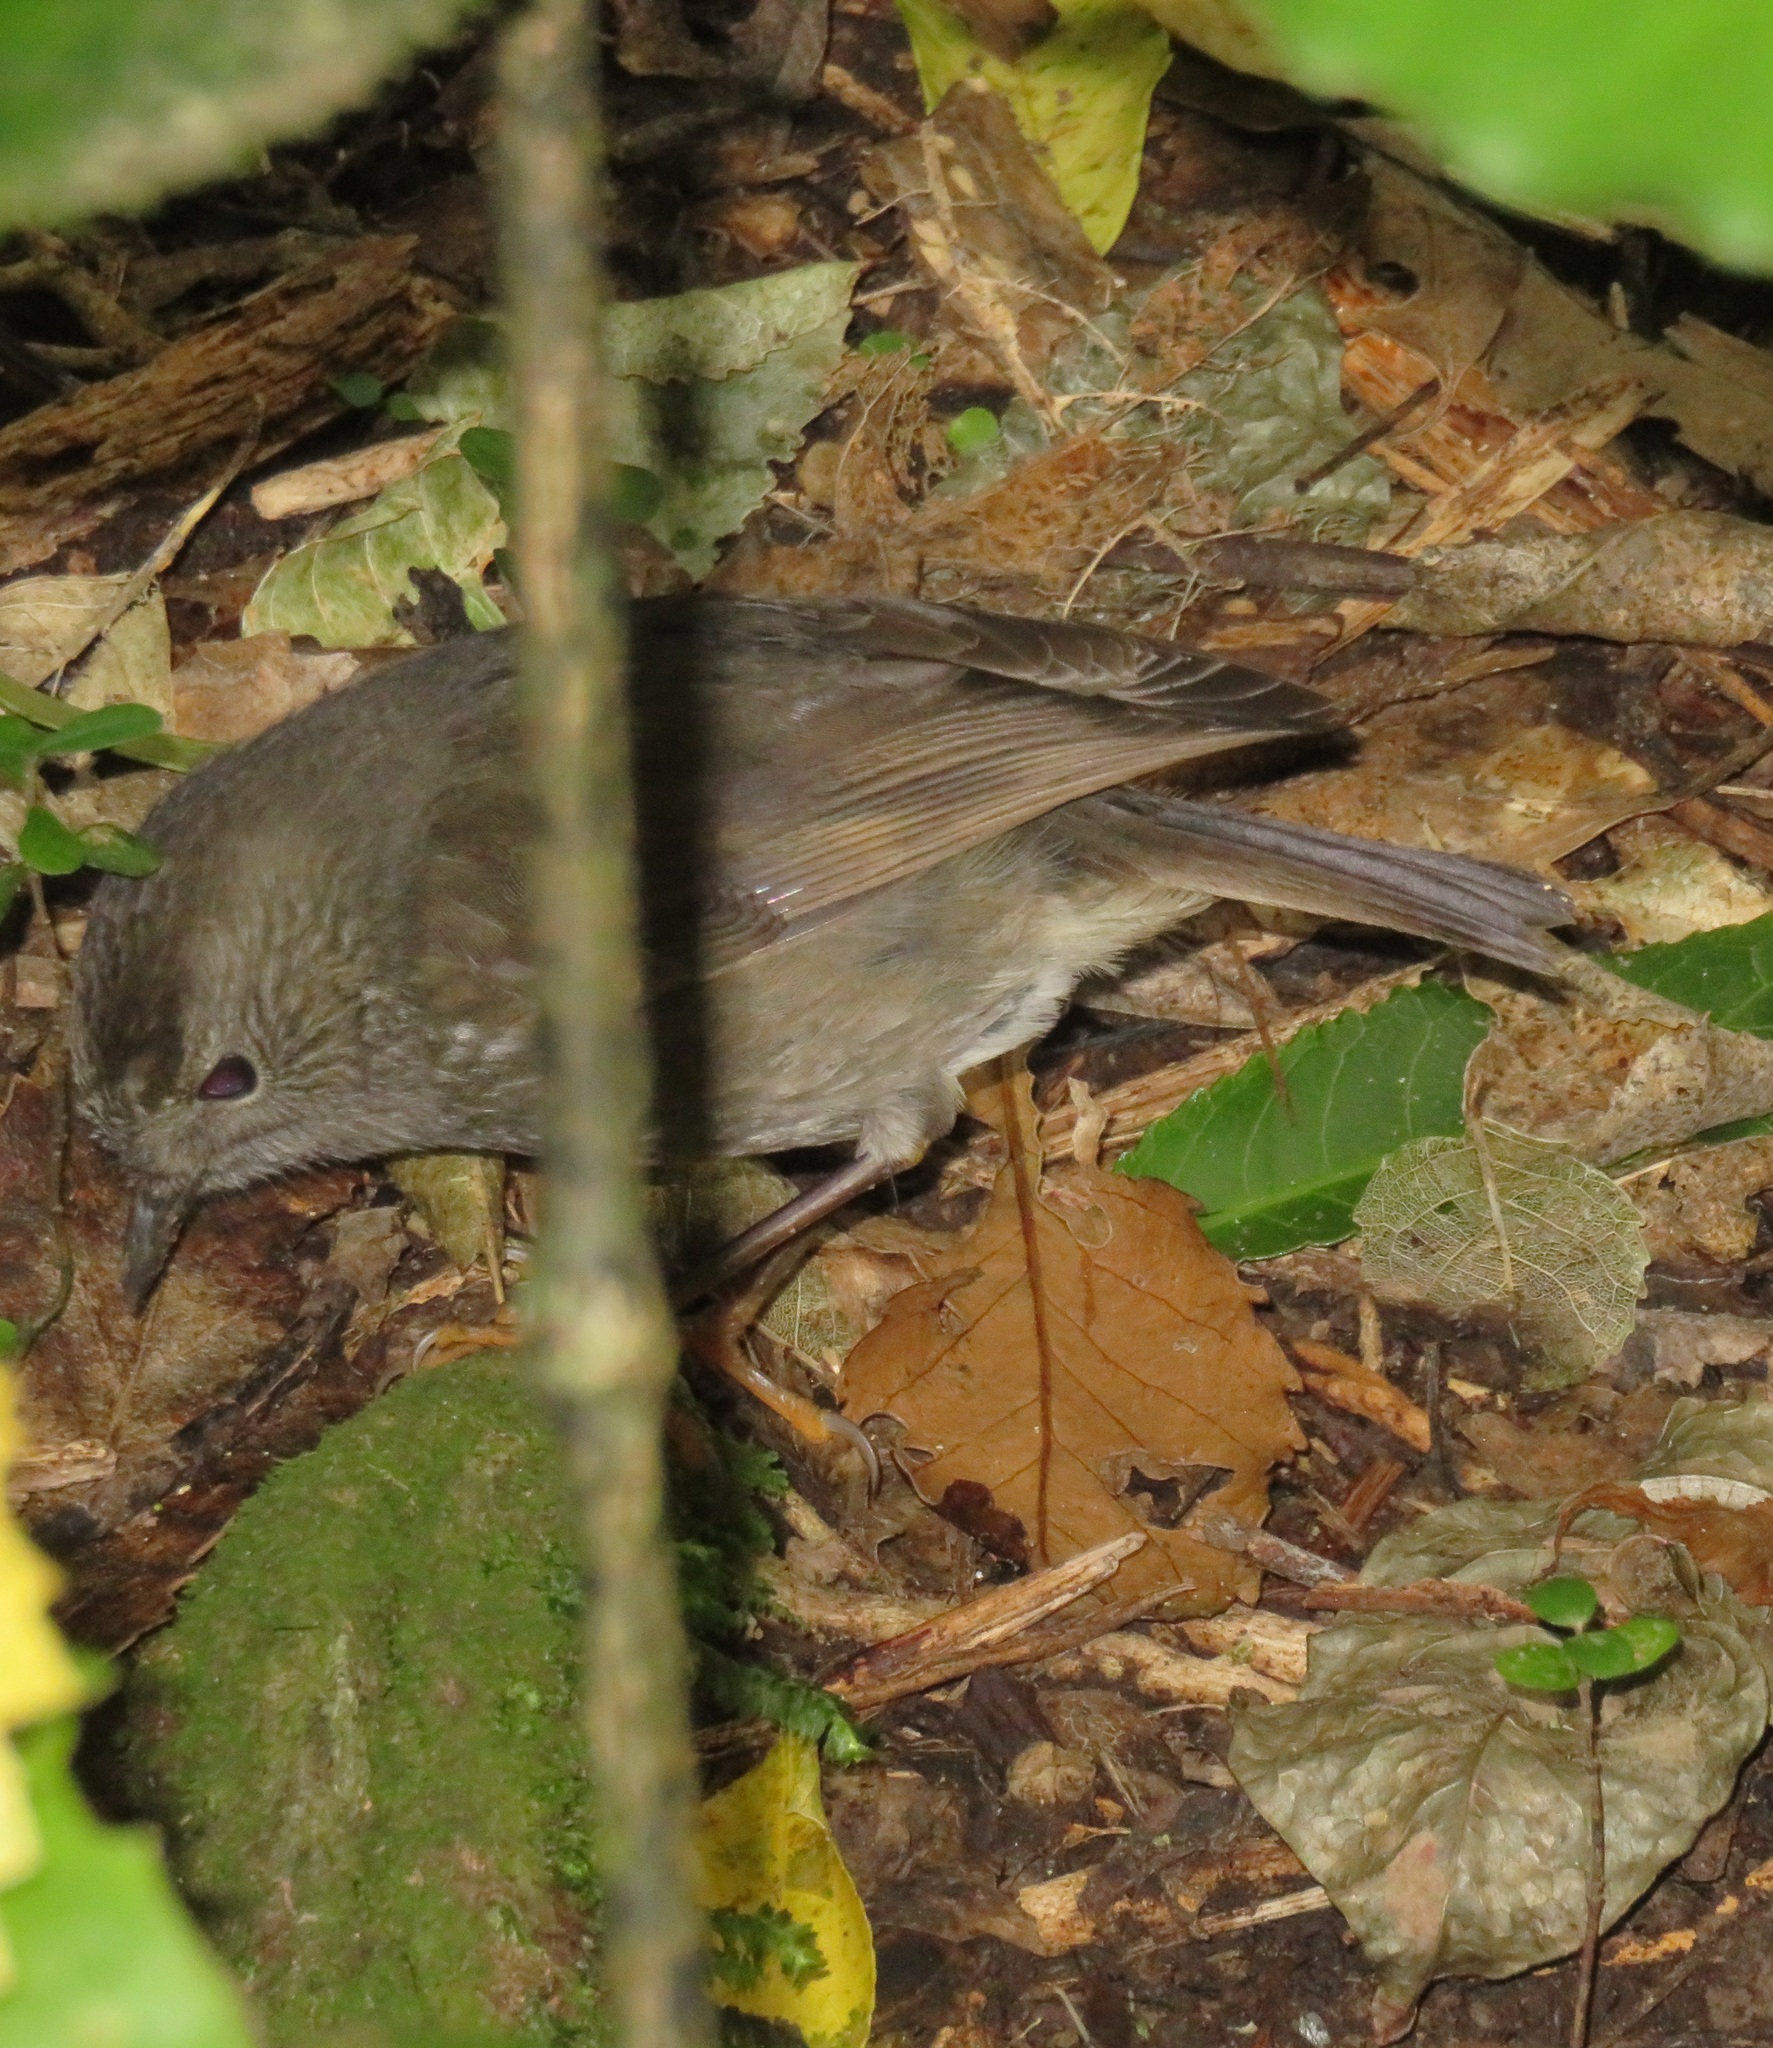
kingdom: Animalia
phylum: Chordata
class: Aves
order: Passeriformes
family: Petroicidae
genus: Petroica
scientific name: Petroica australis
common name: New zealand robin
